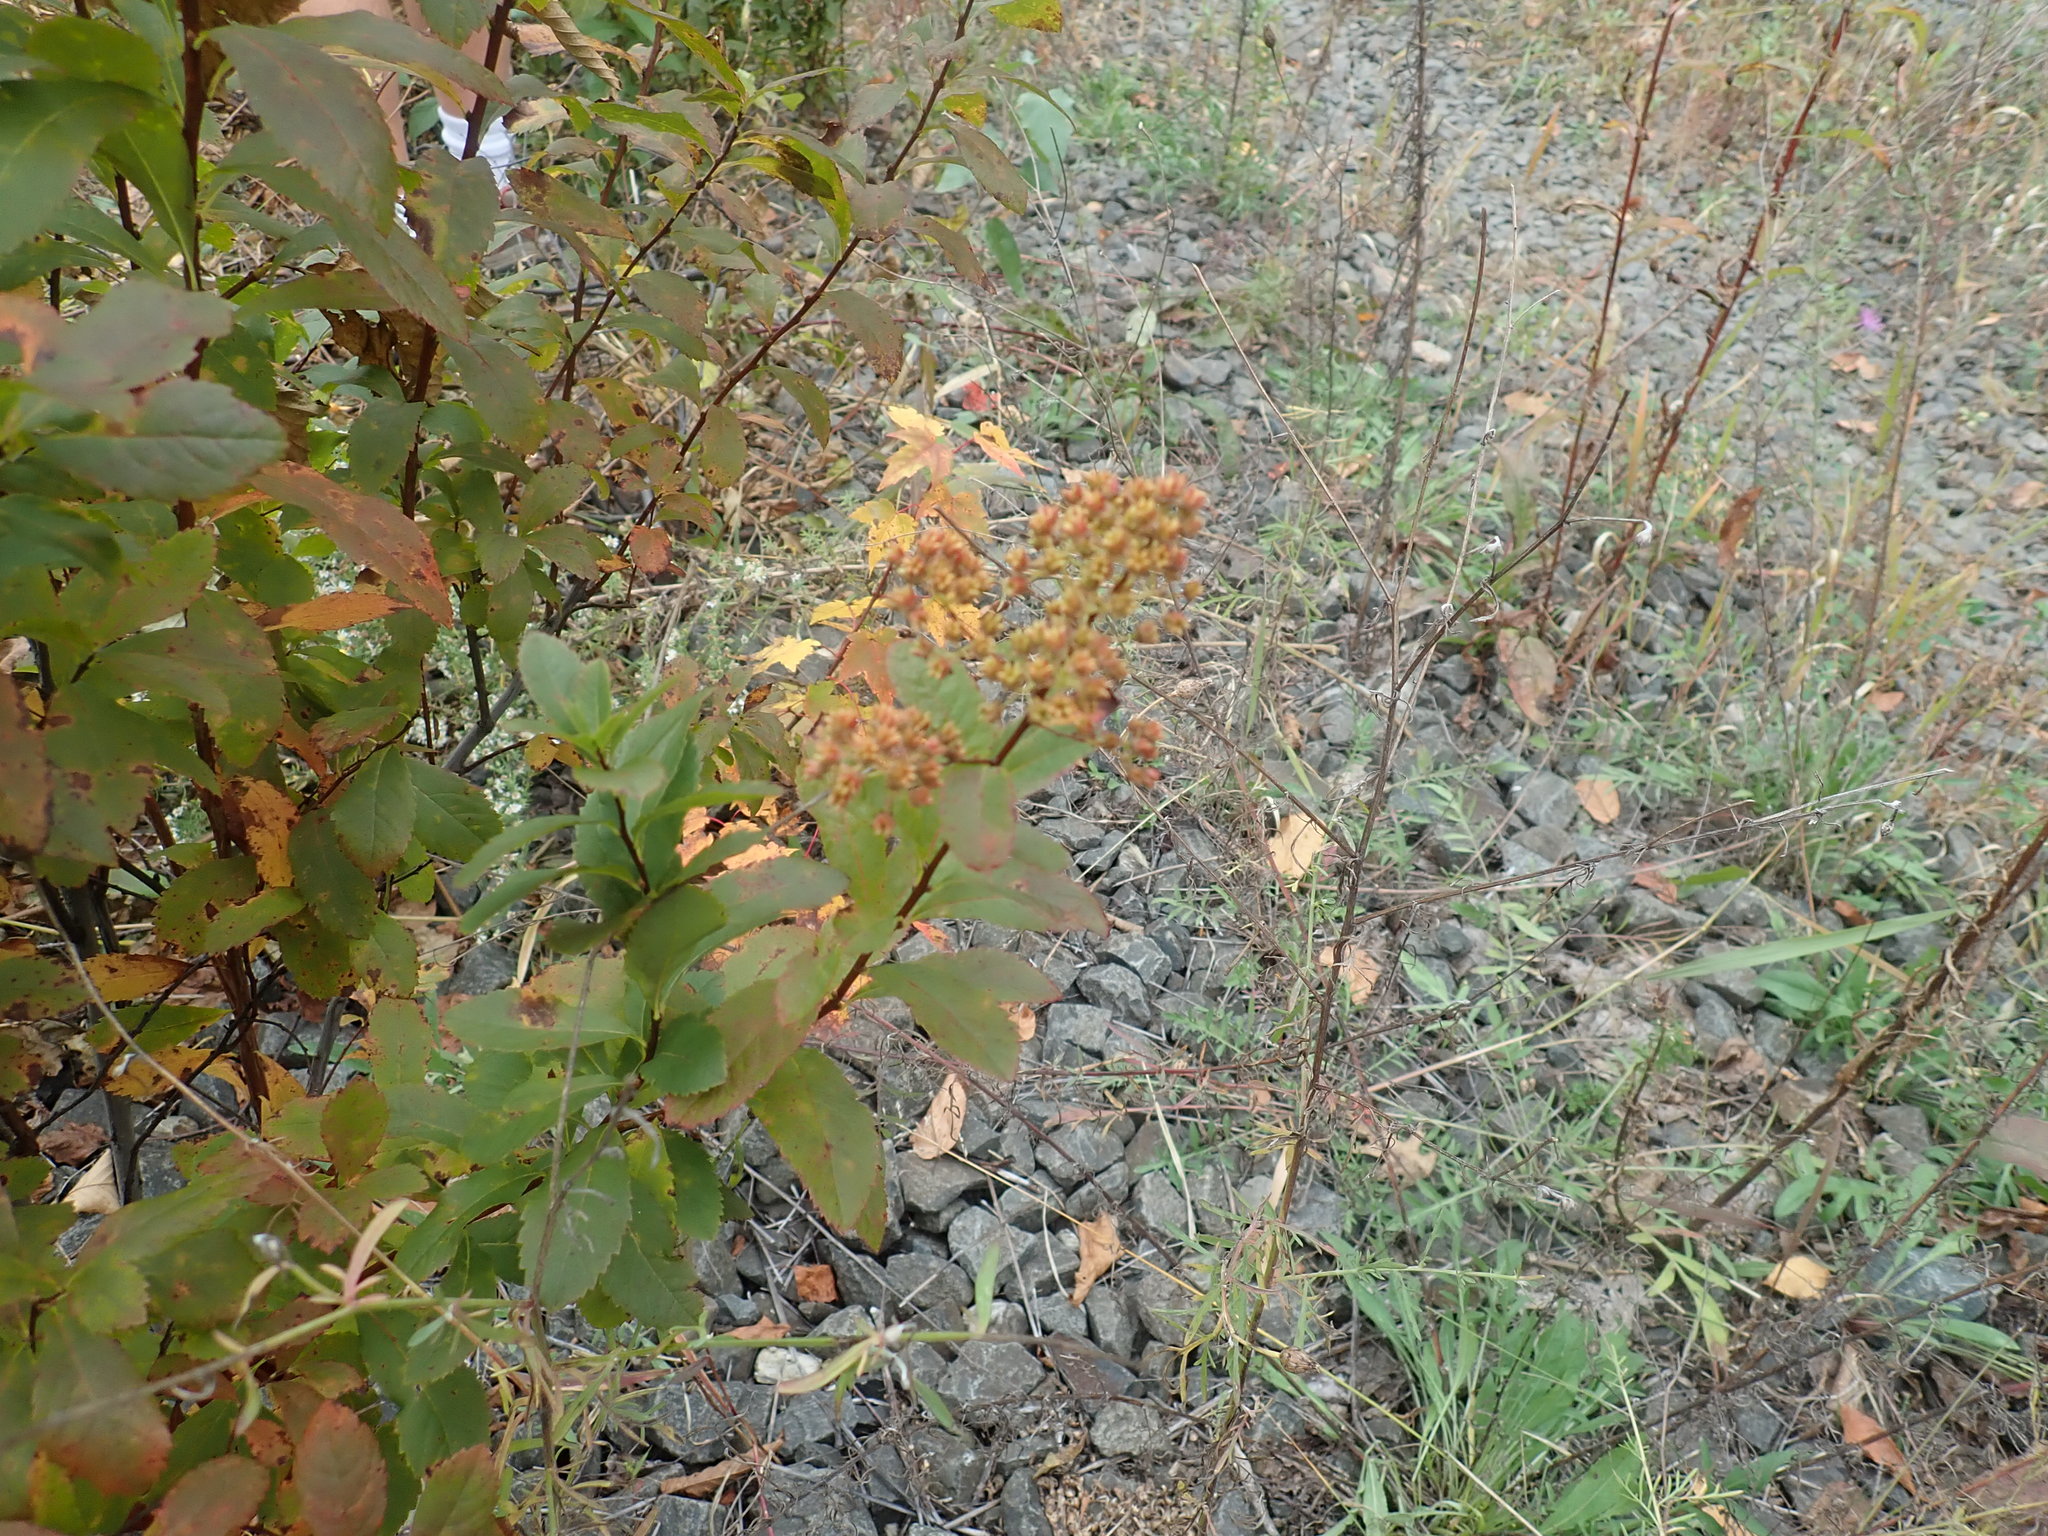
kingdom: Plantae
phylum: Tracheophyta
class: Magnoliopsida
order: Rosales
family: Rosaceae
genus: Spiraea
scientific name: Spiraea alba
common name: Pale bridewort
